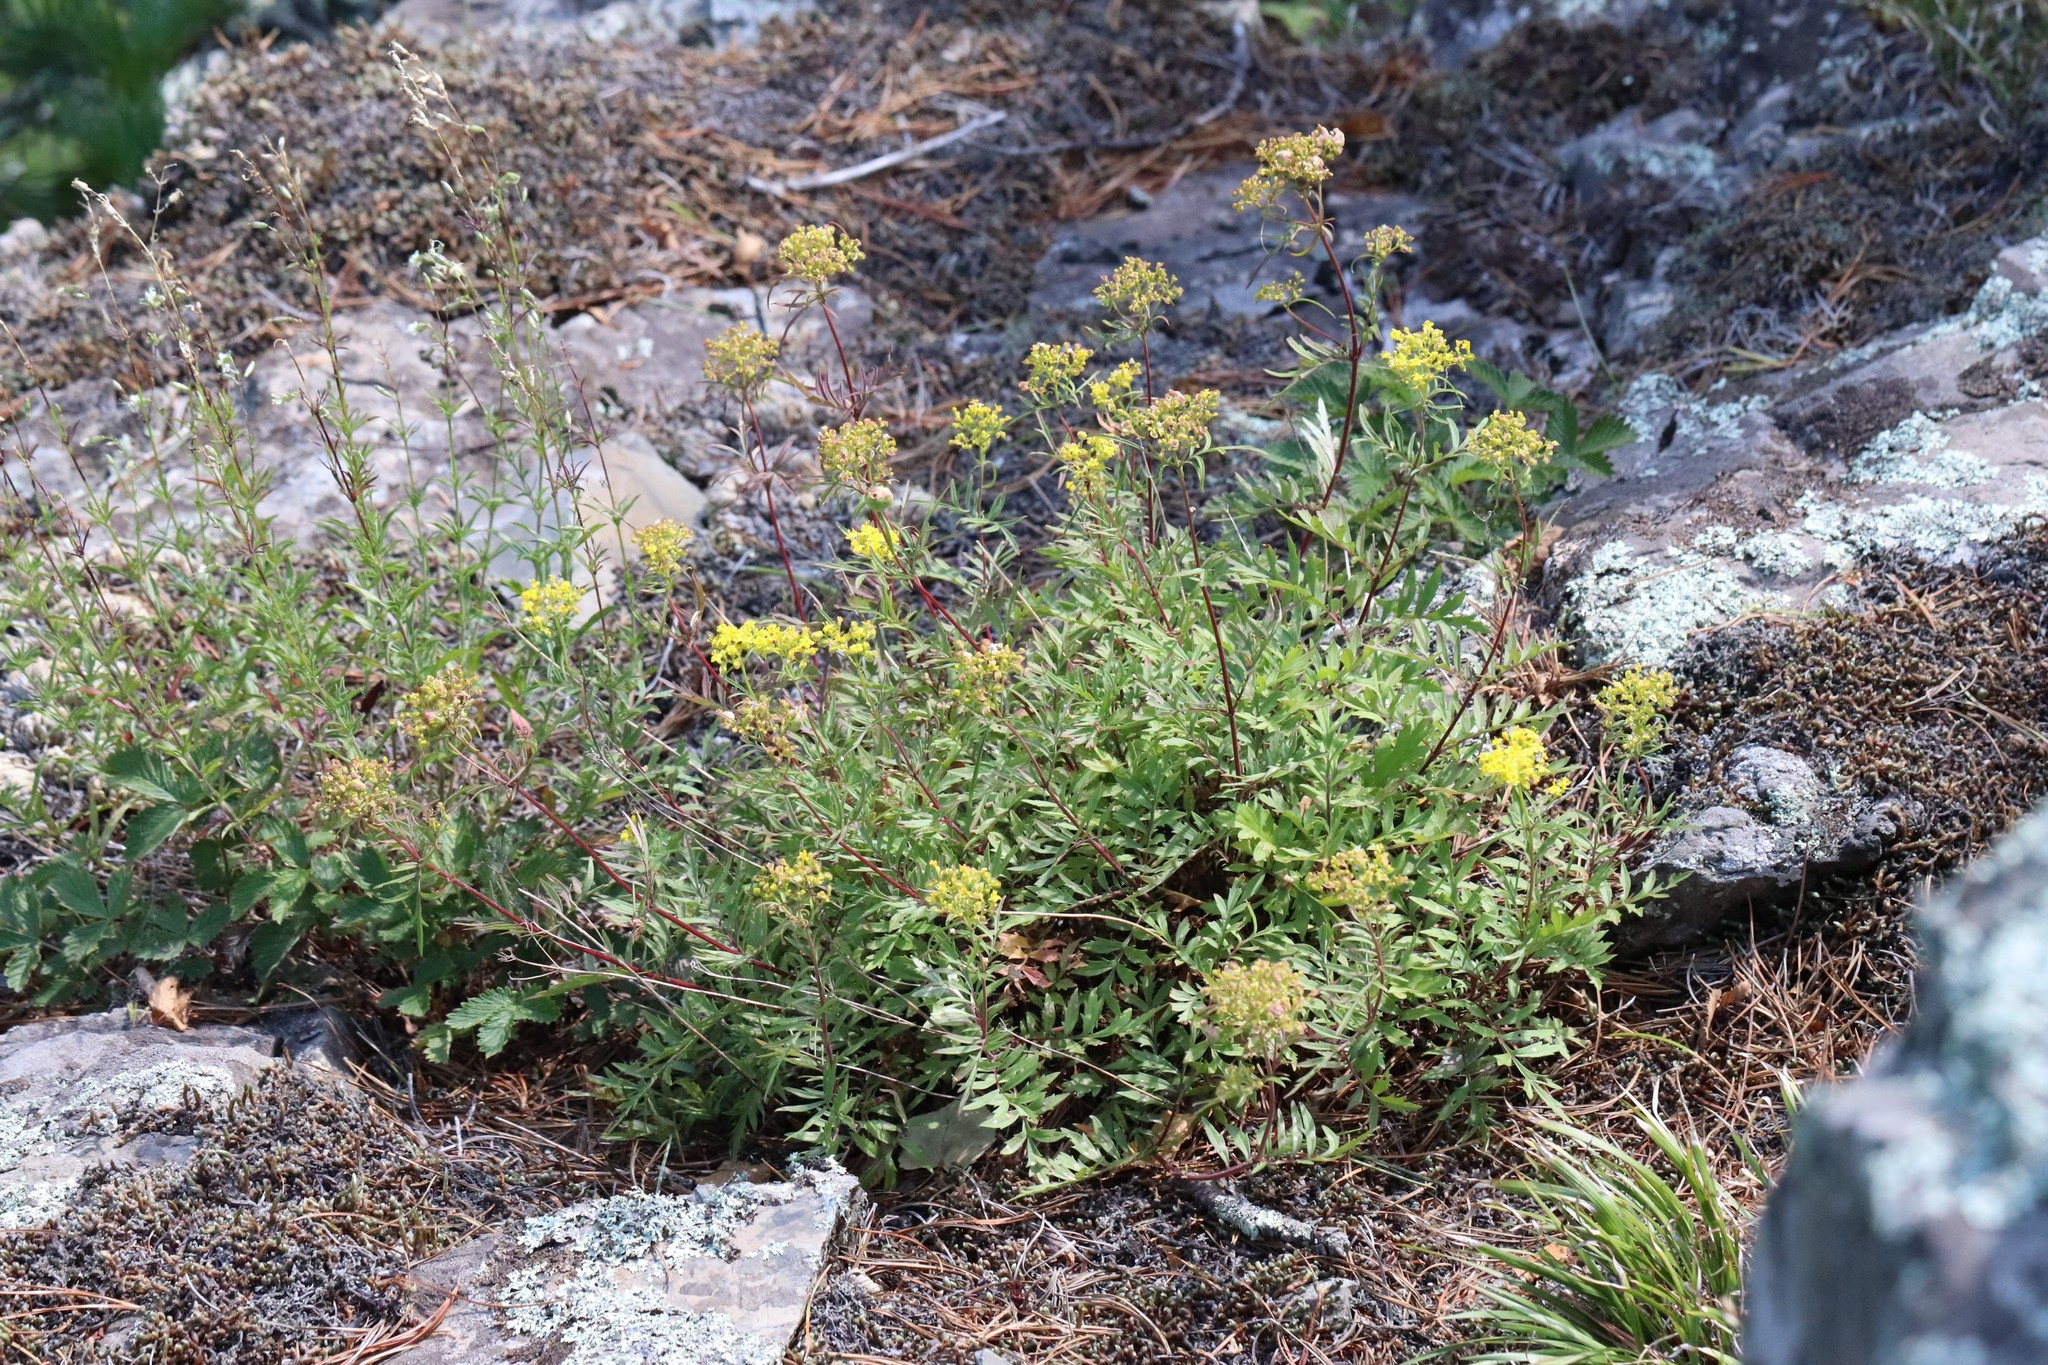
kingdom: Plantae
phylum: Tracheophyta
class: Magnoliopsida
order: Dipsacales
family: Caprifoliaceae
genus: Patrinia
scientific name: Patrinia rupestris
